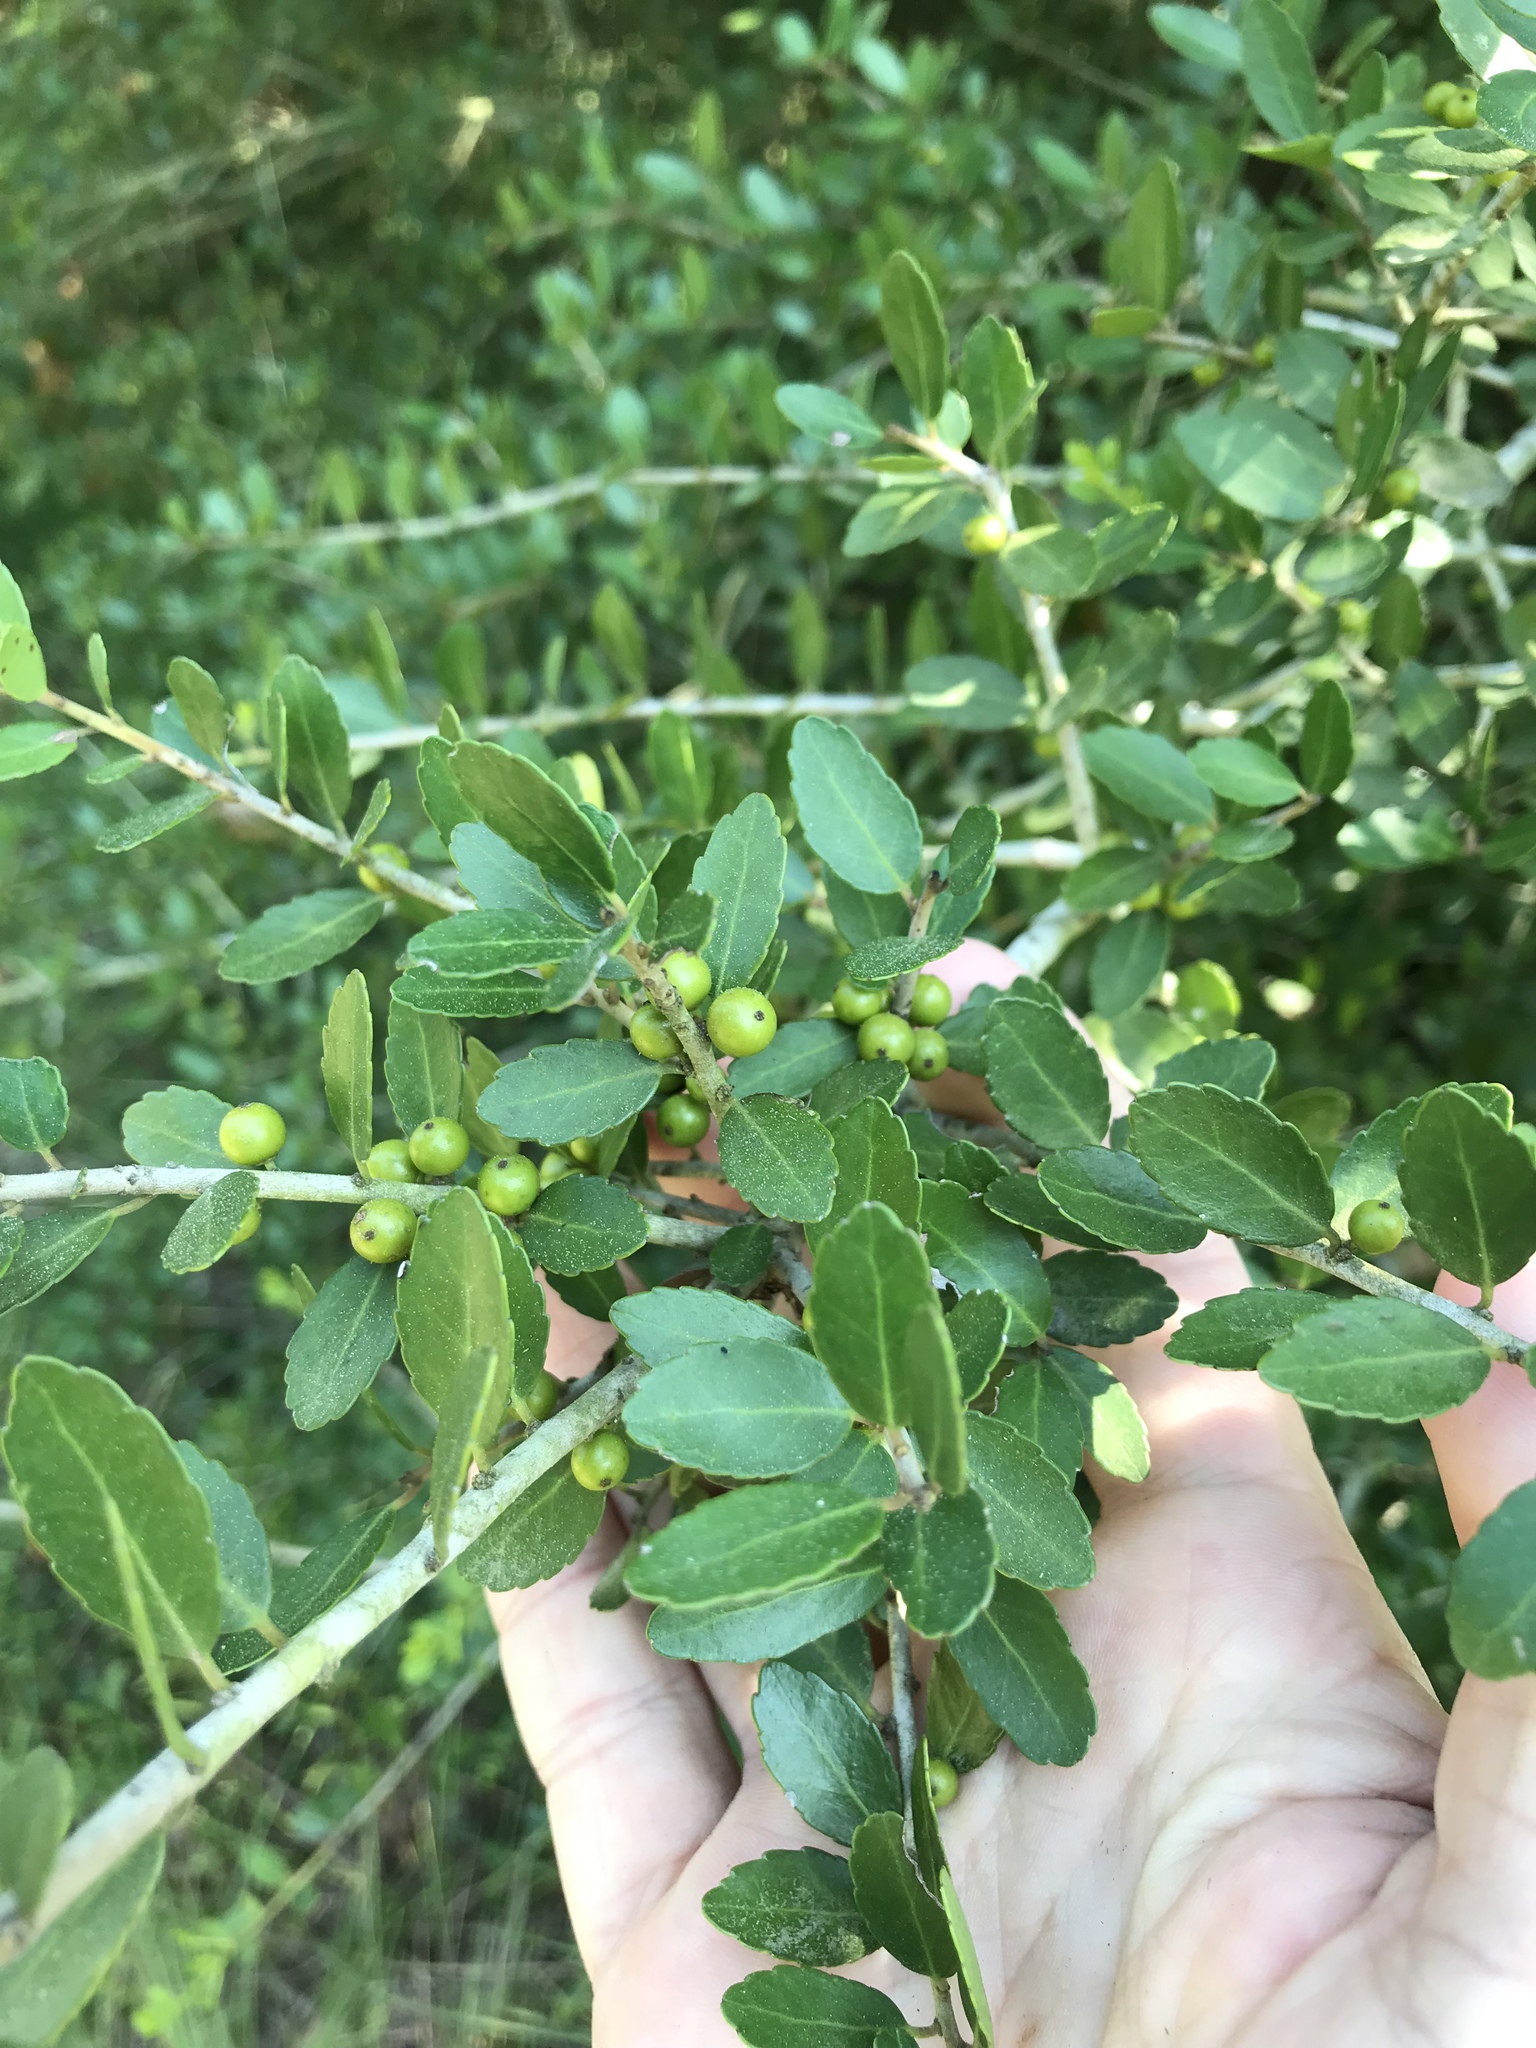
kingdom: Plantae
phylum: Tracheophyta
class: Magnoliopsida
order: Aquifoliales
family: Aquifoliaceae
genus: Ilex
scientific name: Ilex vomitoria
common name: Yaupon holly
